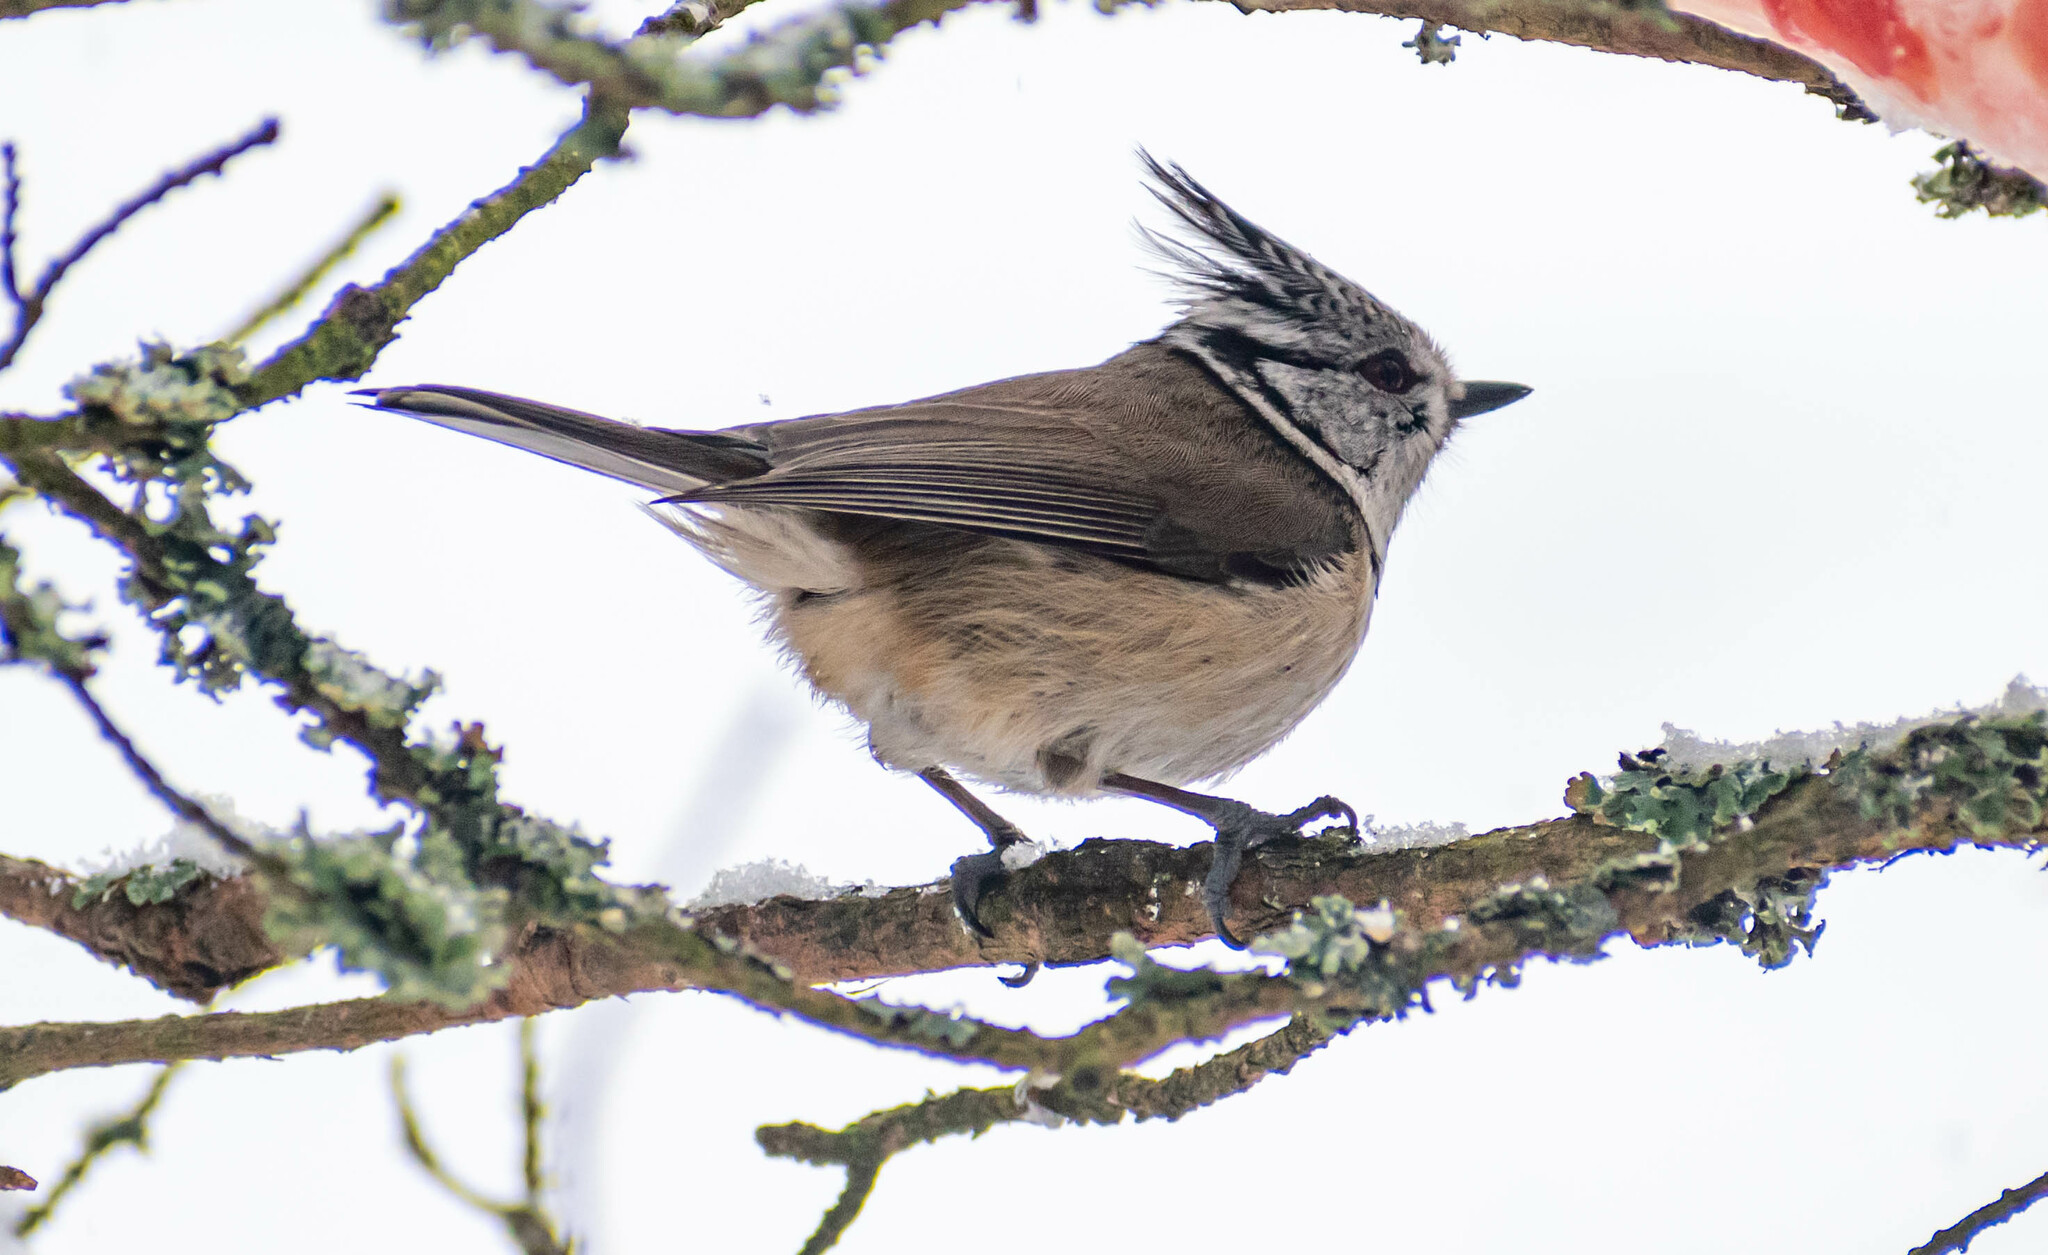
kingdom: Animalia
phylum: Chordata
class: Aves
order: Passeriformes
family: Paridae
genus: Lophophanes
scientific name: Lophophanes cristatus
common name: European crested tit
